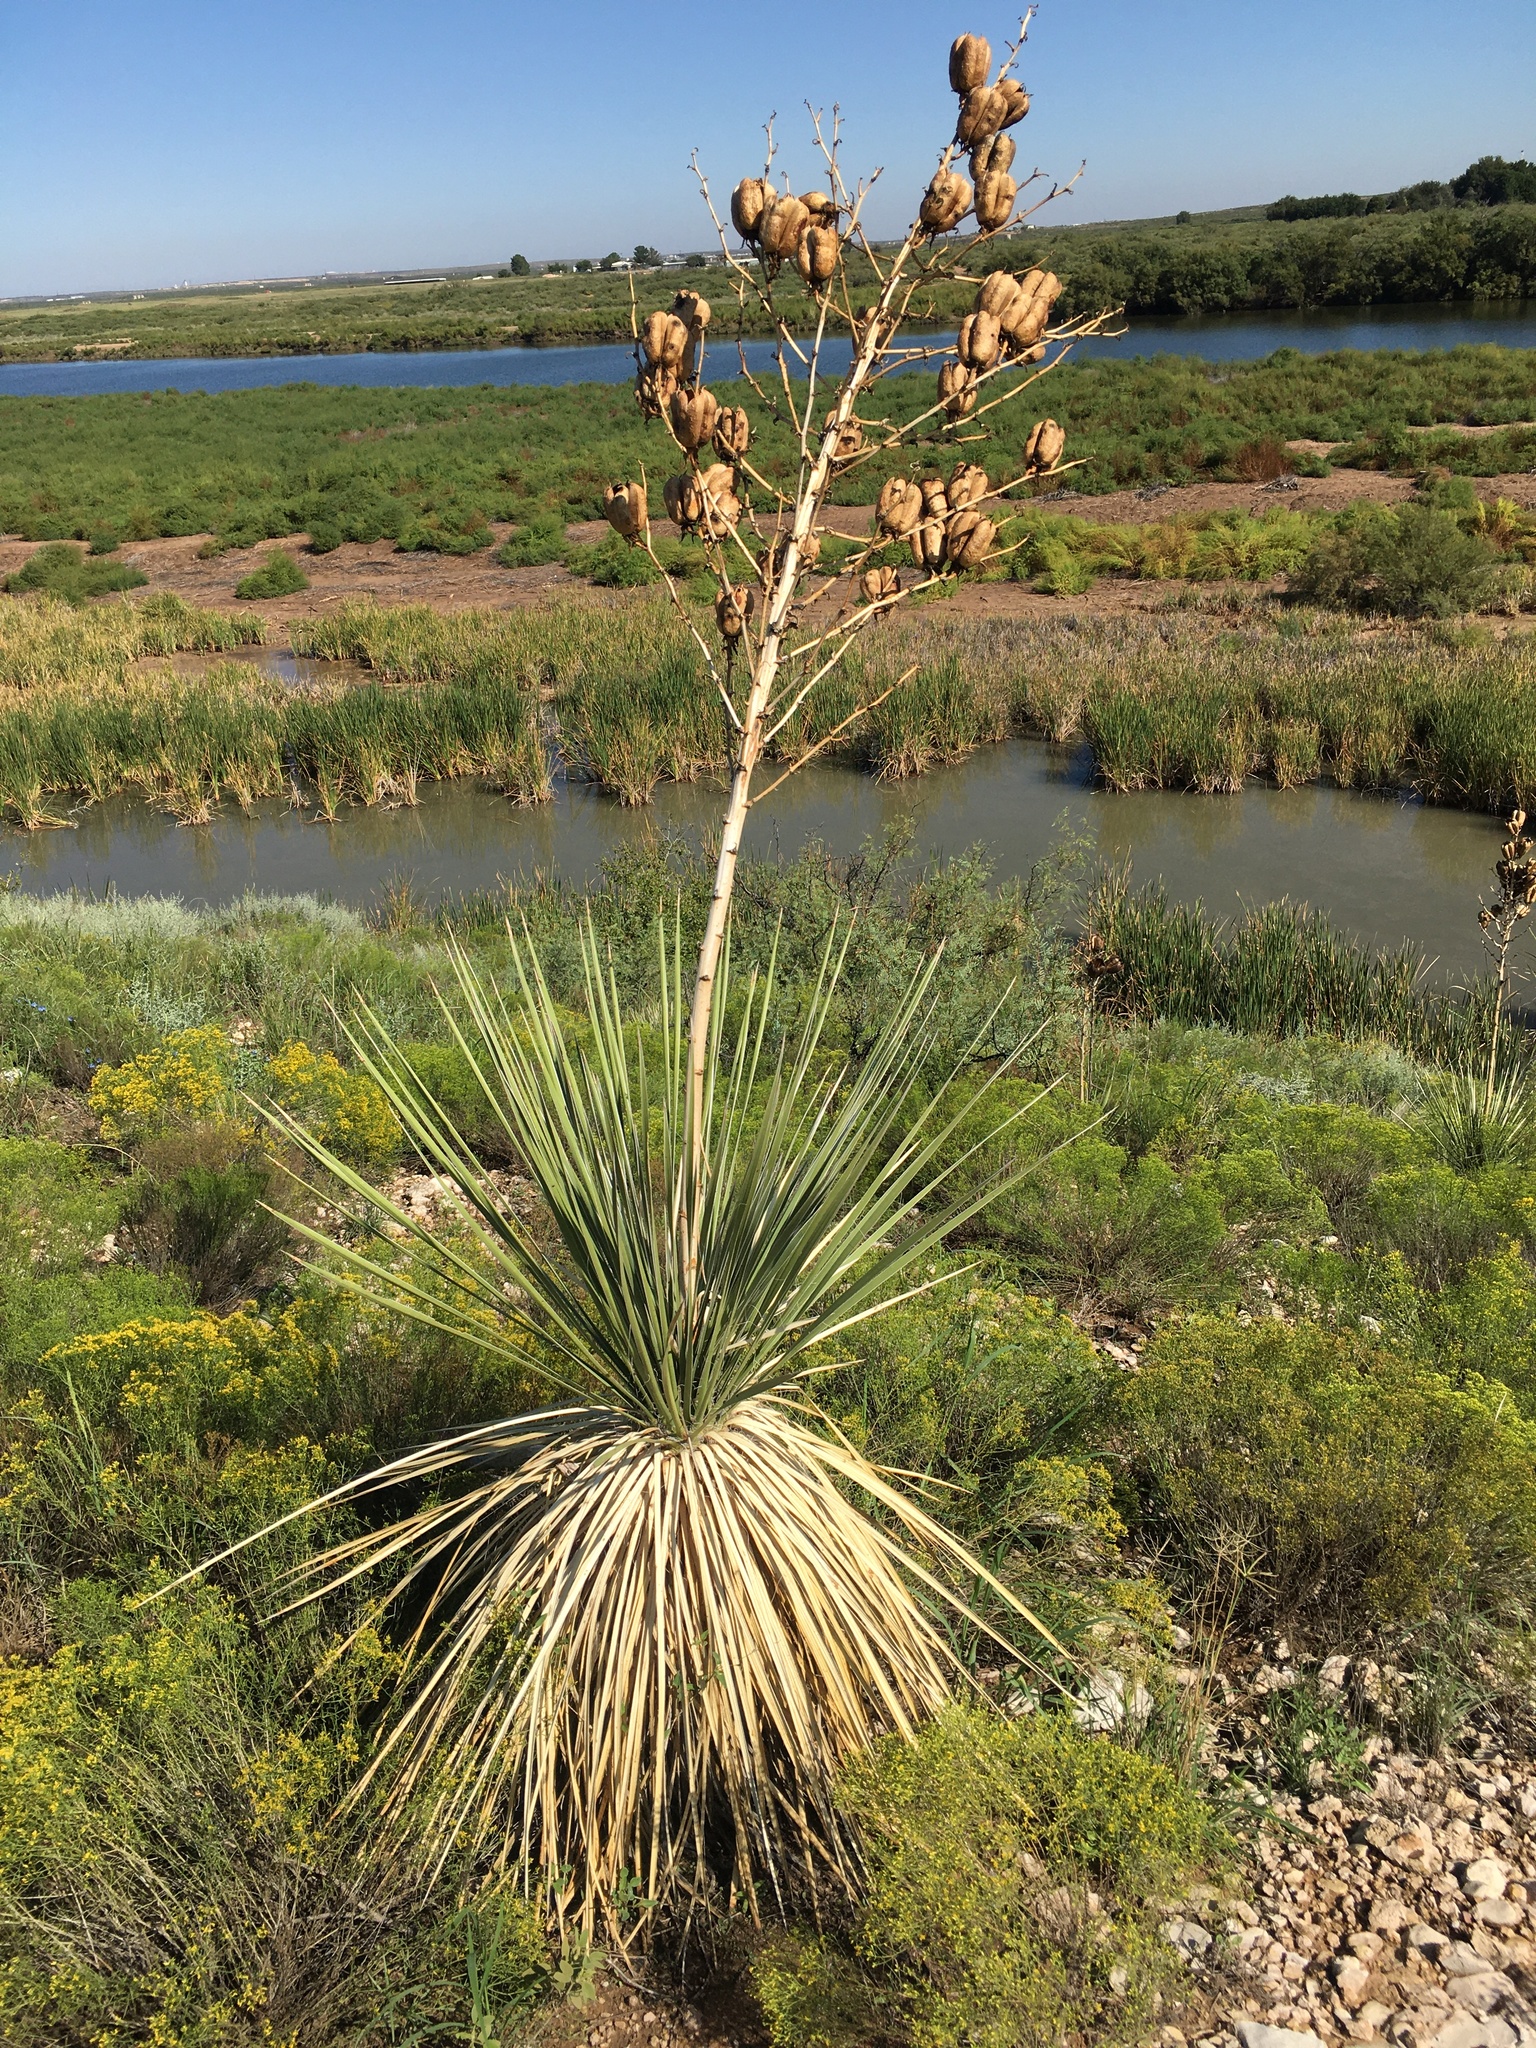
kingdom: Plantae
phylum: Tracheophyta
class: Liliopsida
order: Asparagales
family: Asparagaceae
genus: Yucca
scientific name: Yucca elata
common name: Palmella
